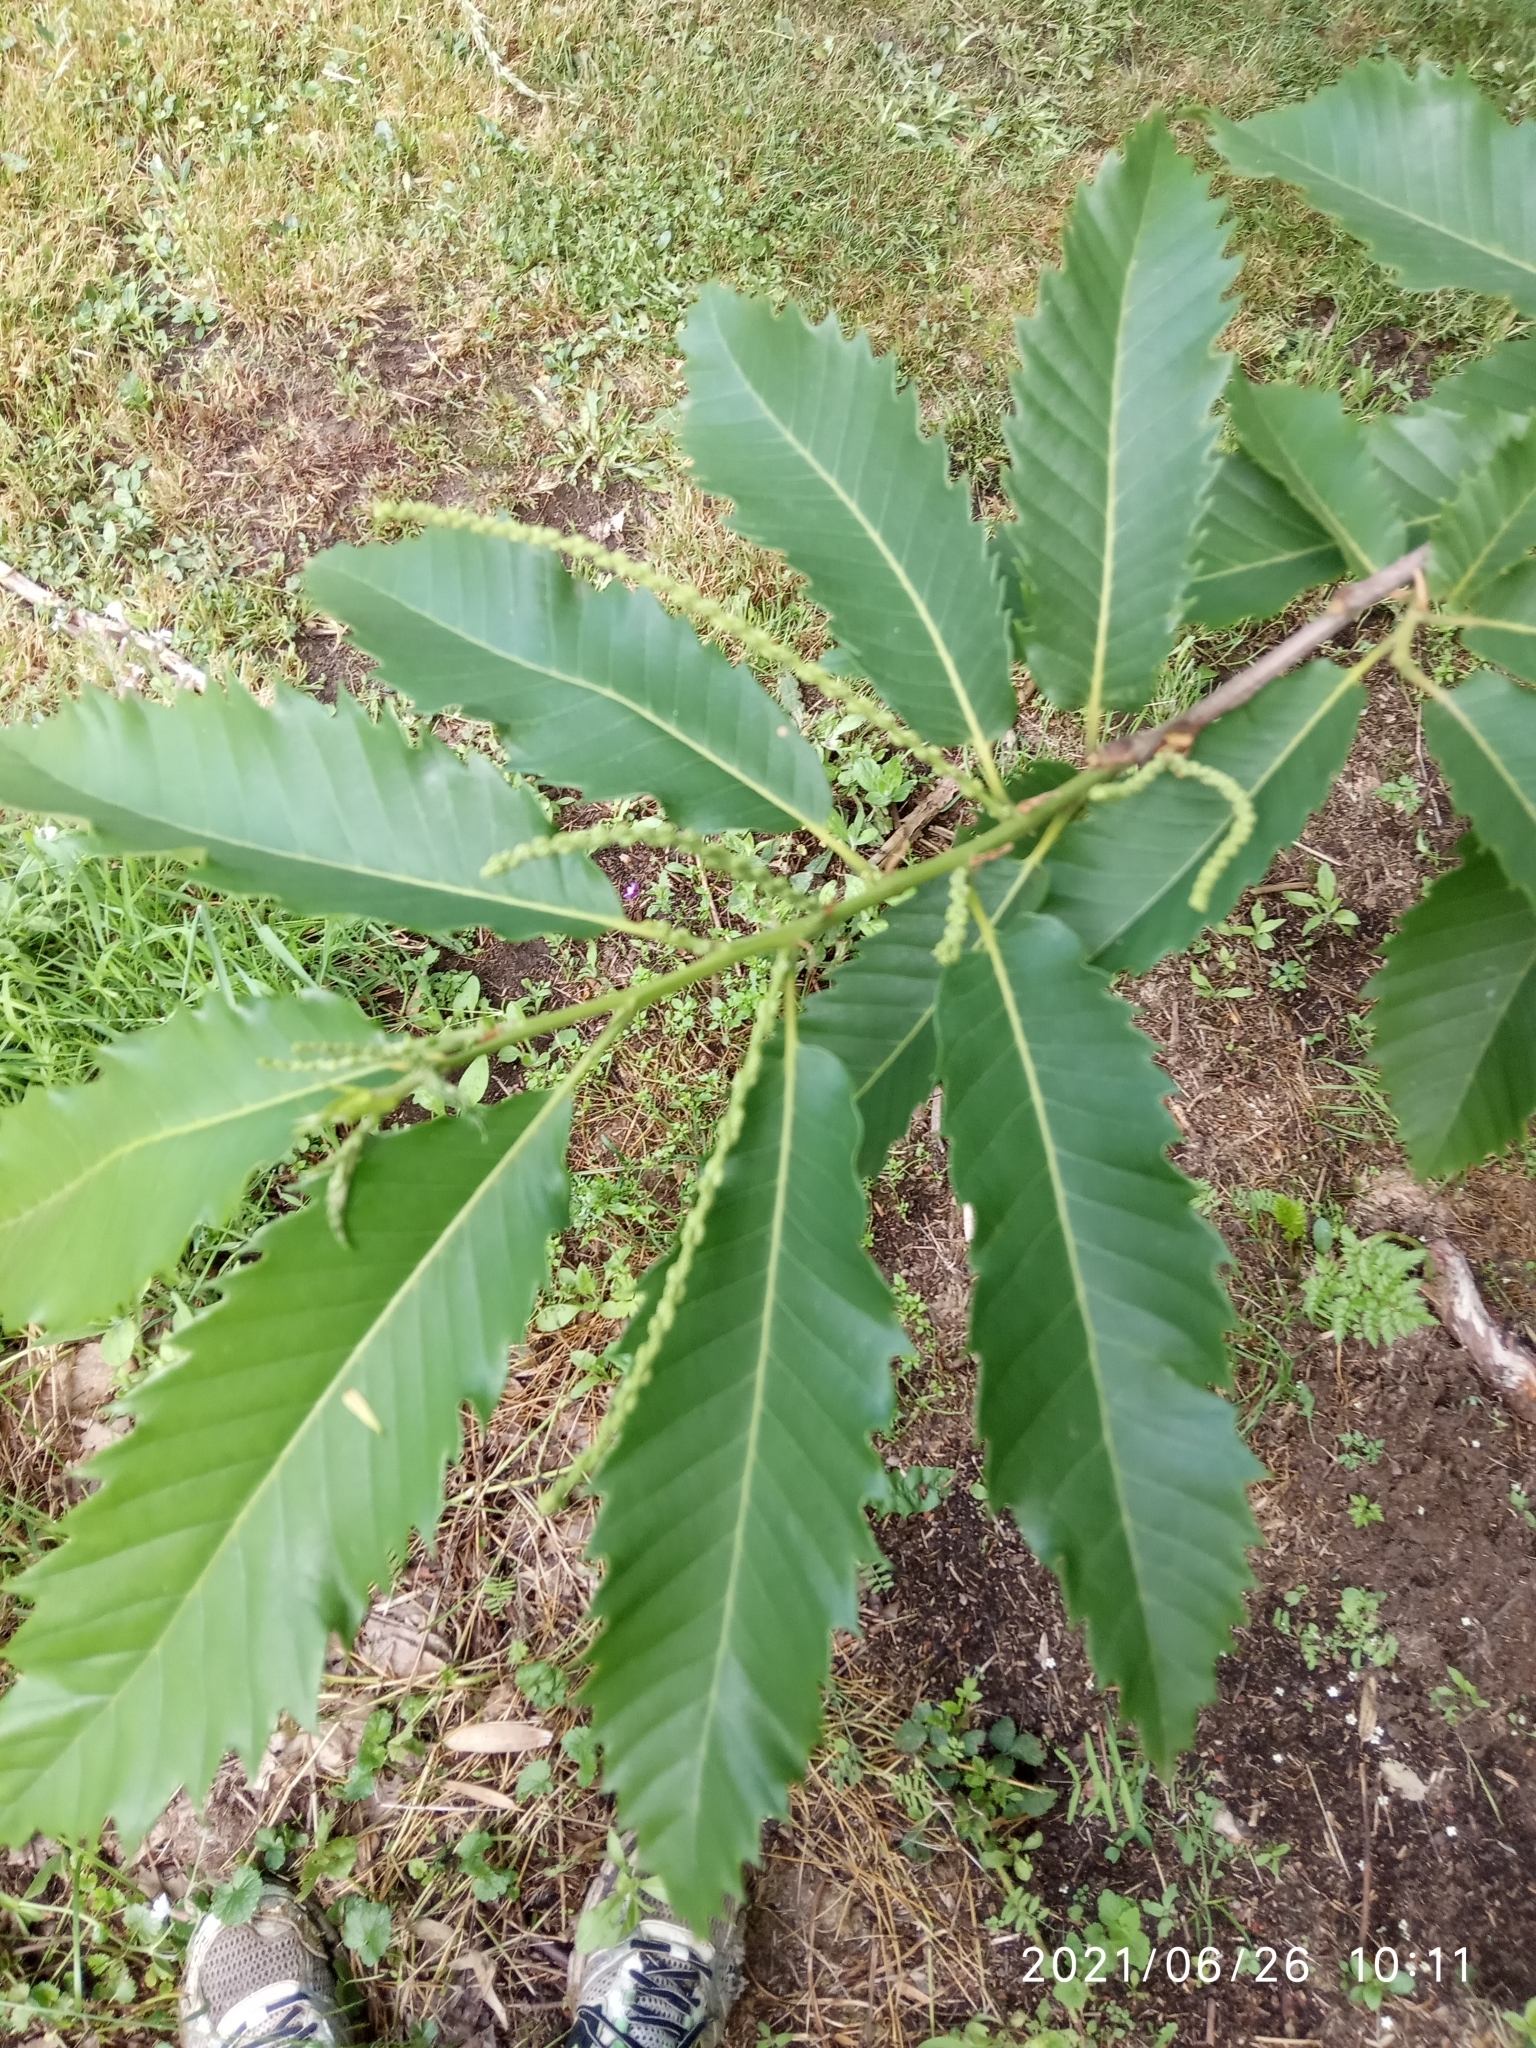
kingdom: Plantae
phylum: Tracheophyta
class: Magnoliopsida
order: Fagales
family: Fagaceae
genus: Castanea
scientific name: Castanea sativa
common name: Sweet chestnut
